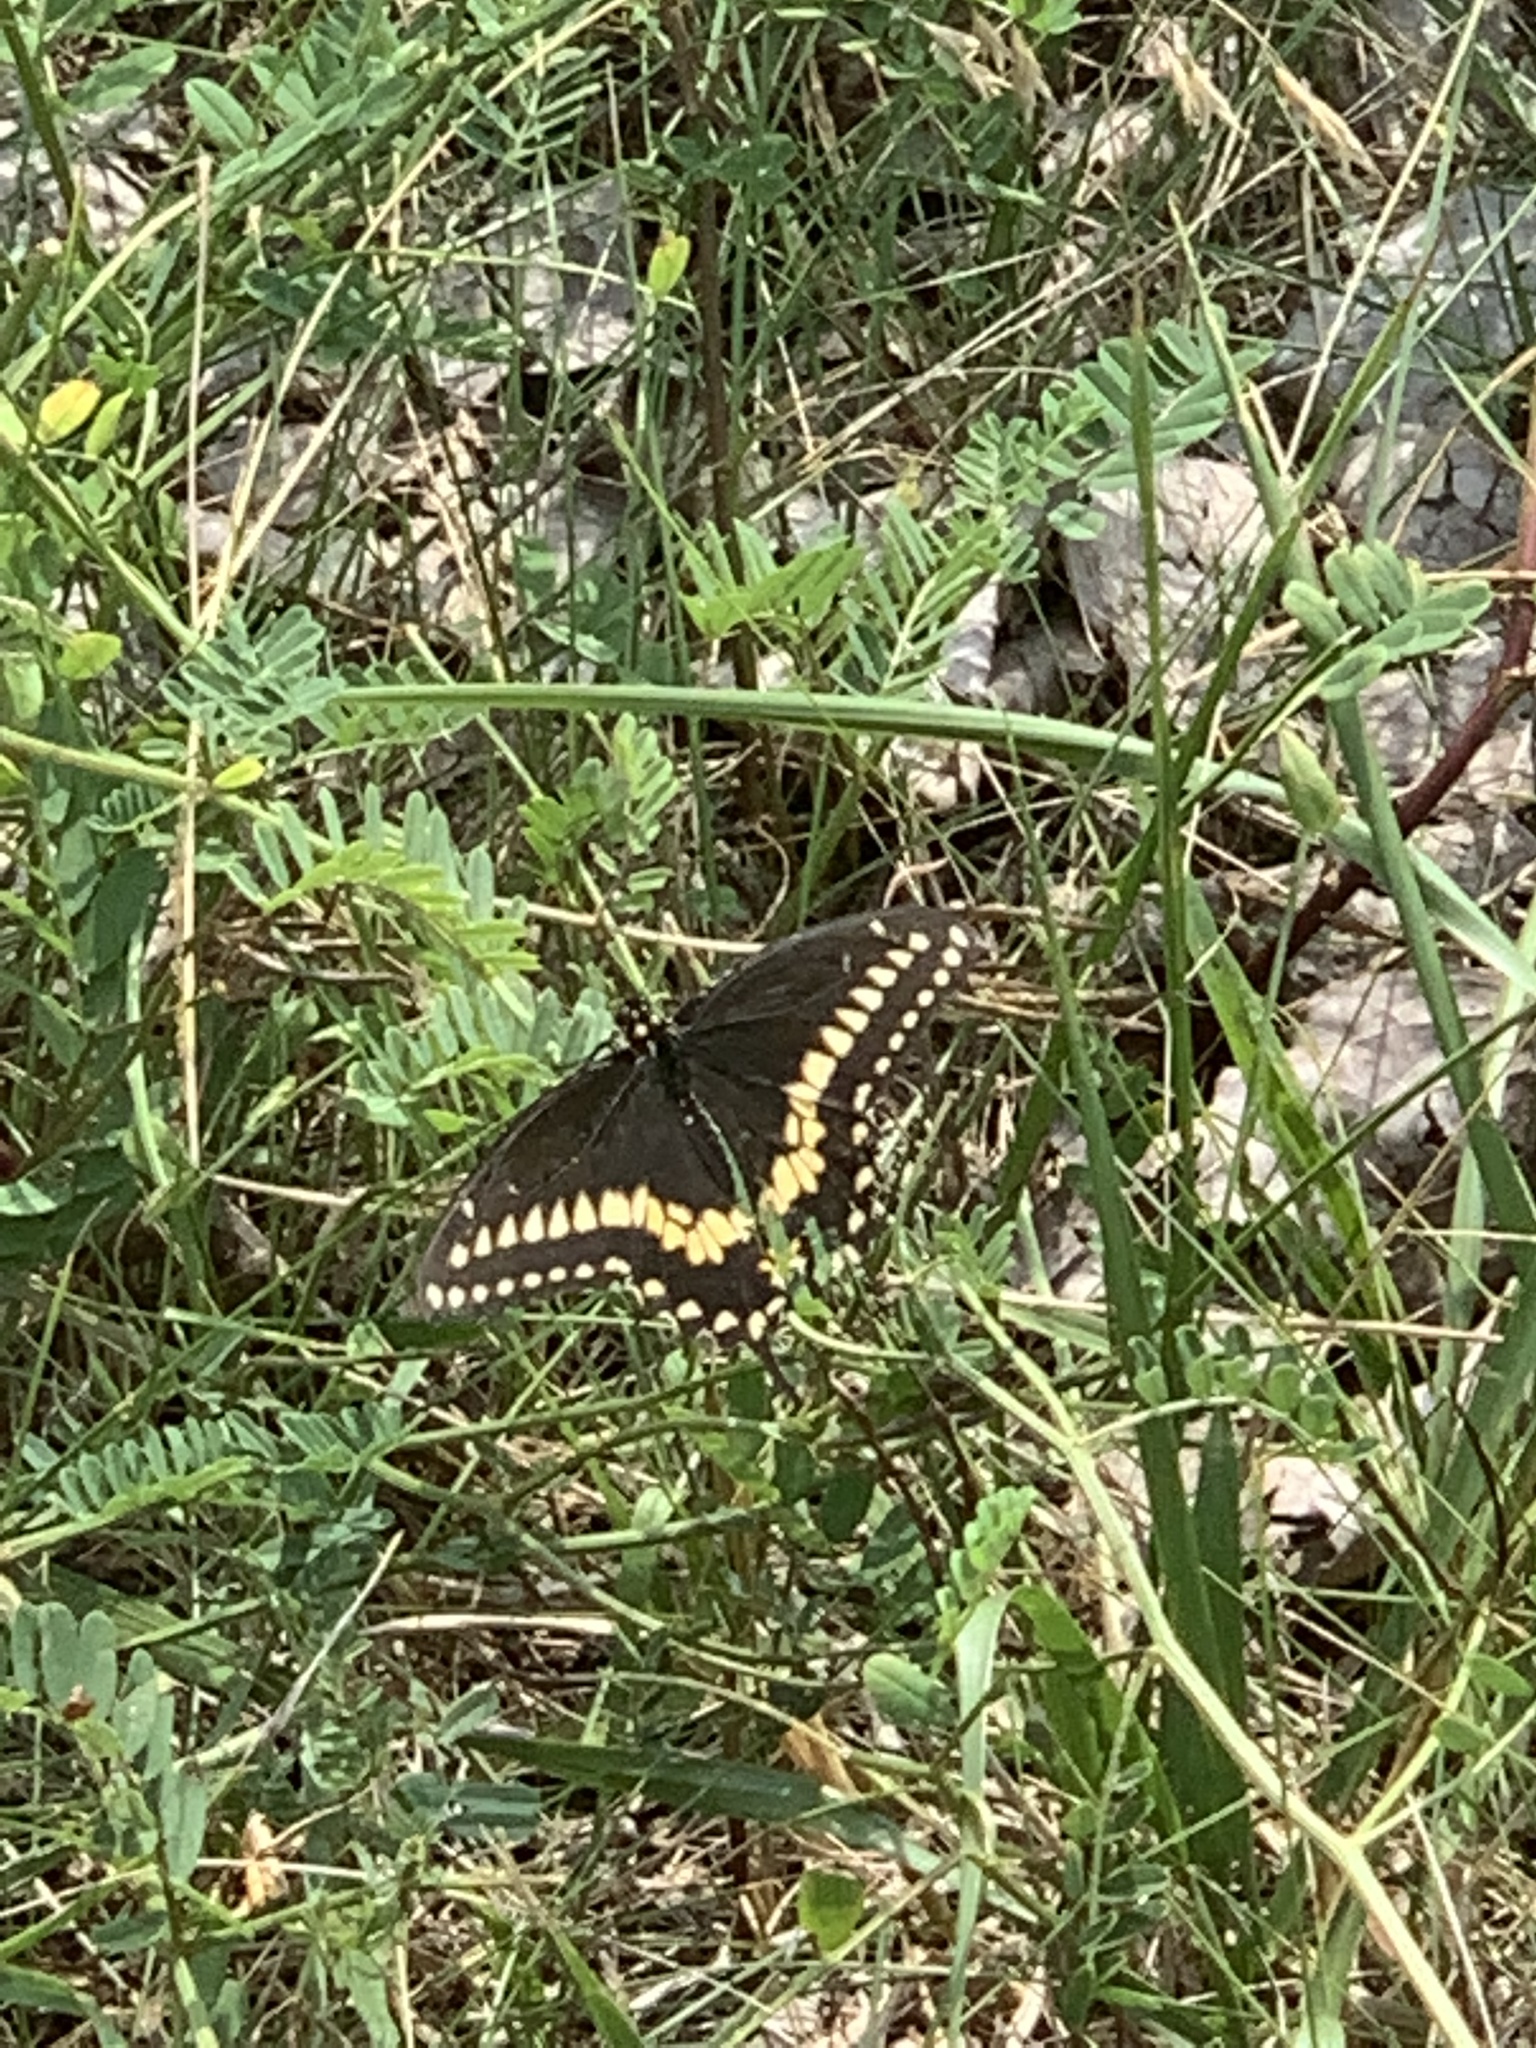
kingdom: Animalia
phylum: Arthropoda
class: Insecta
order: Lepidoptera
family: Papilionidae
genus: Papilio
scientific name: Papilio polyxenes
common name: Black swallowtail
